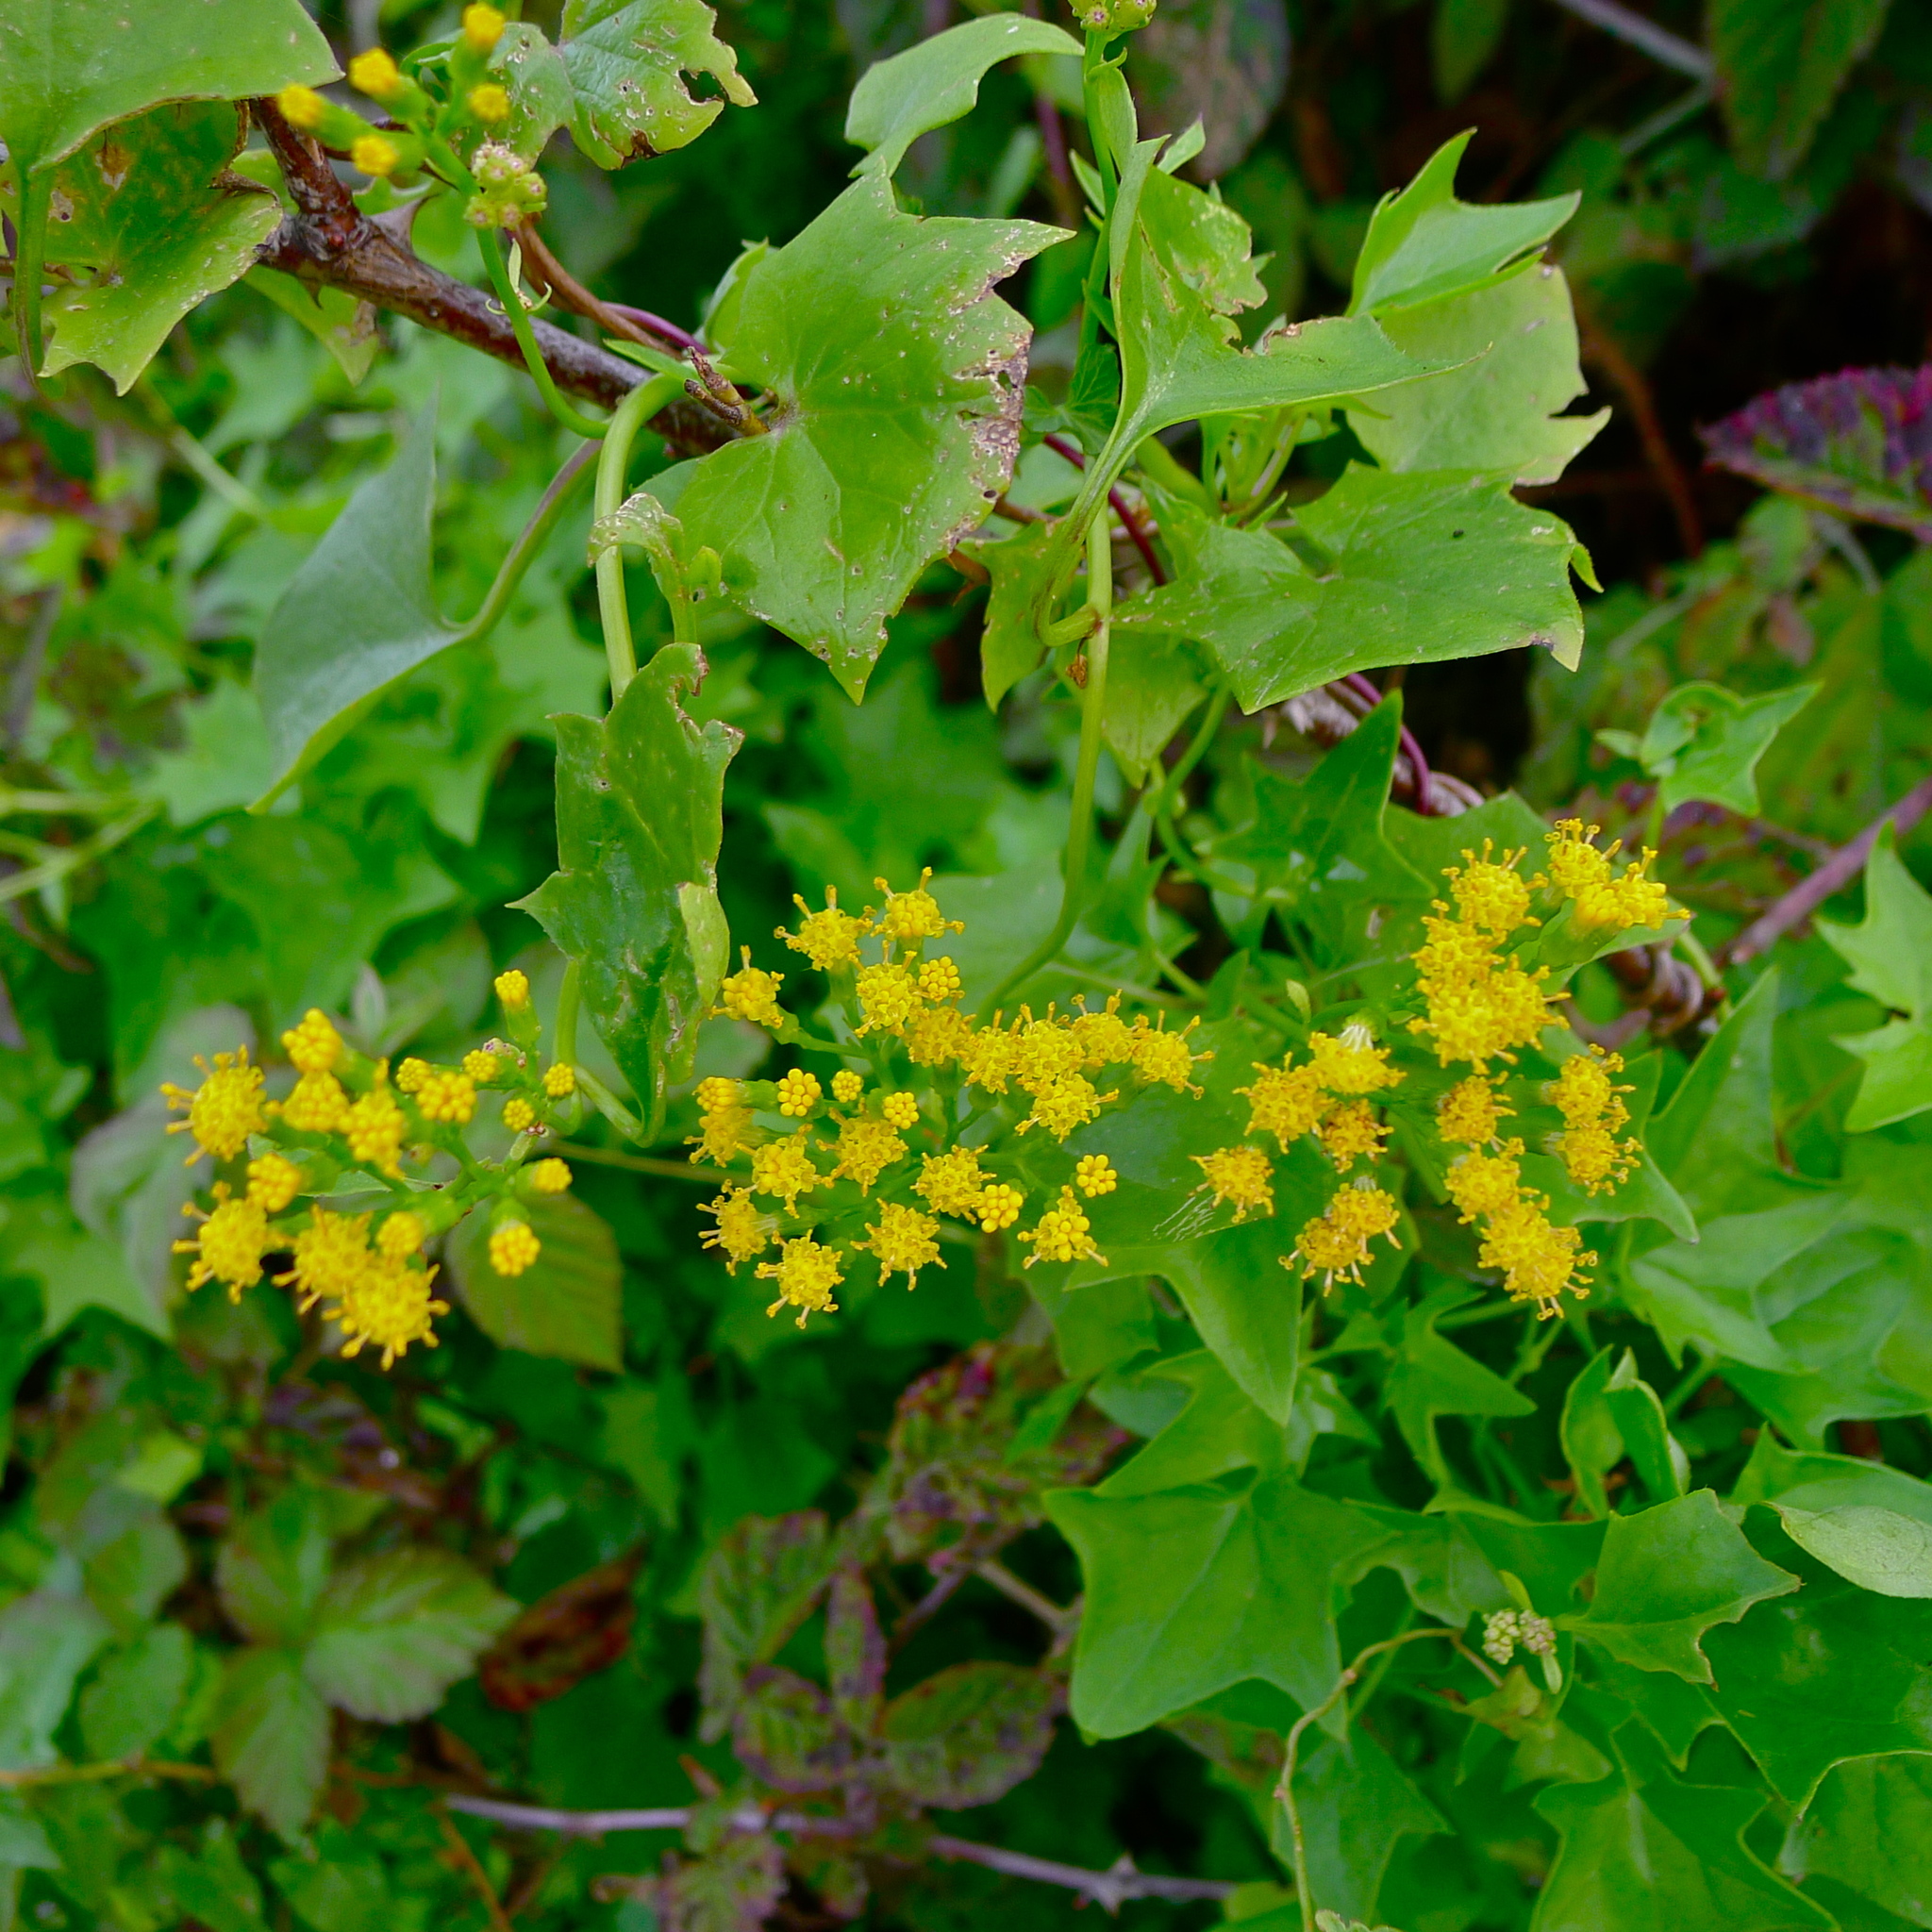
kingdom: Plantae
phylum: Tracheophyta
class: Magnoliopsida
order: Asterales
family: Asteraceae
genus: Delairea
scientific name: Delairea odorata
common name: Cape-ivy
